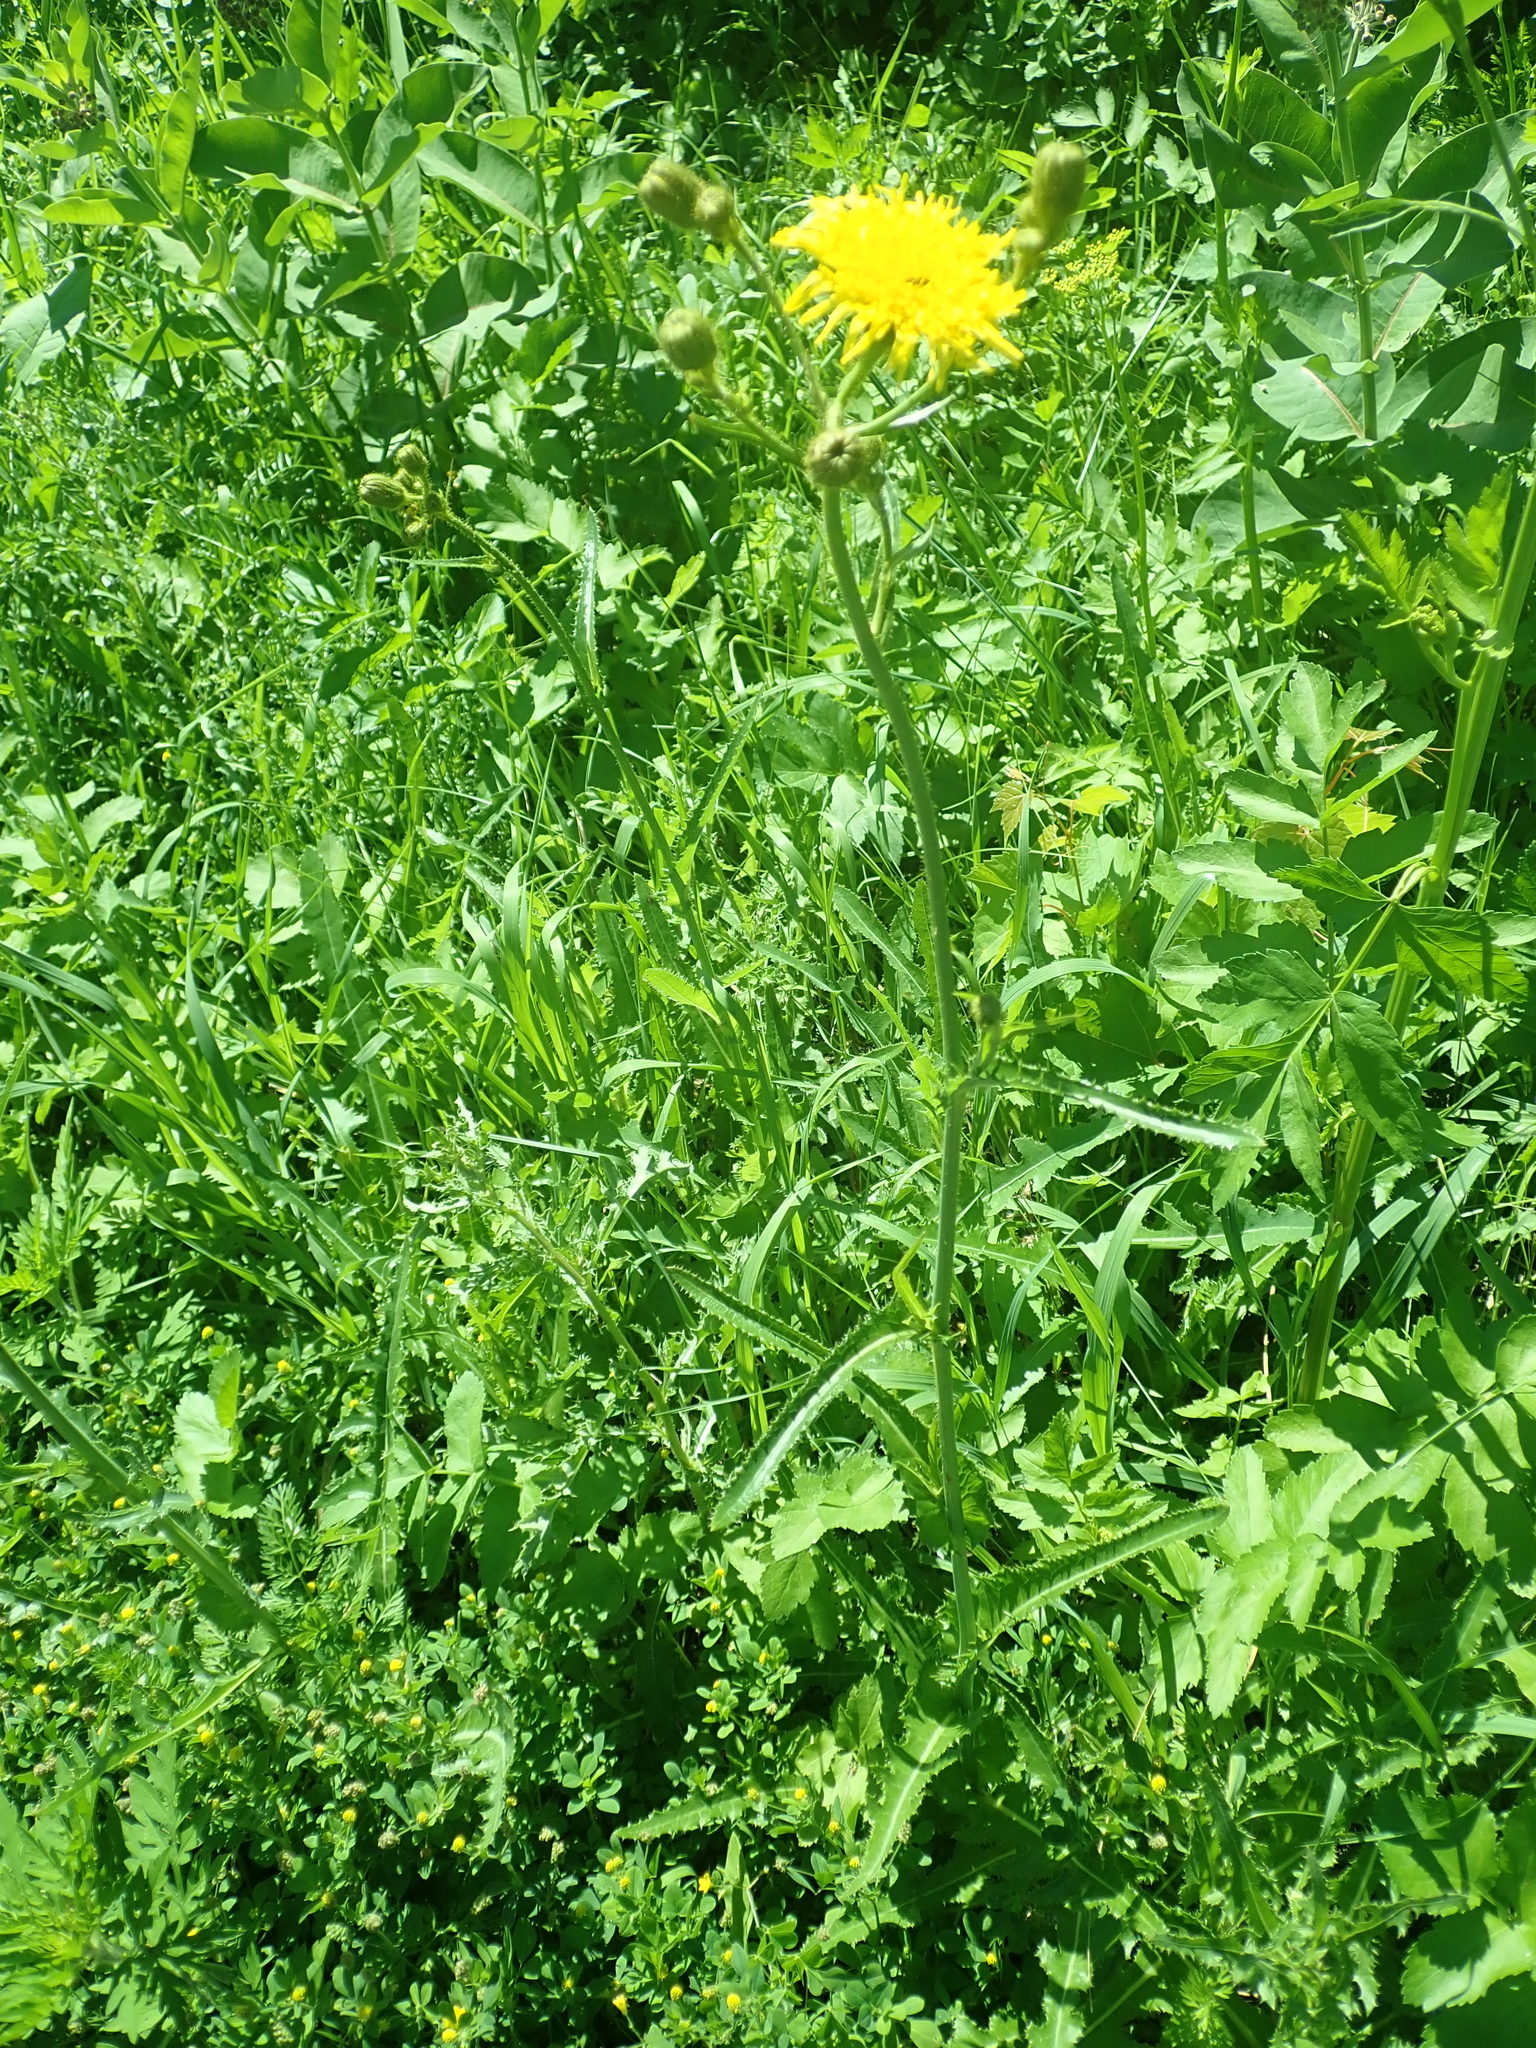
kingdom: Plantae
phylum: Tracheophyta
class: Magnoliopsida
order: Asterales
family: Asteraceae
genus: Sonchus
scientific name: Sonchus arvensis
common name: Perennial sow-thistle
